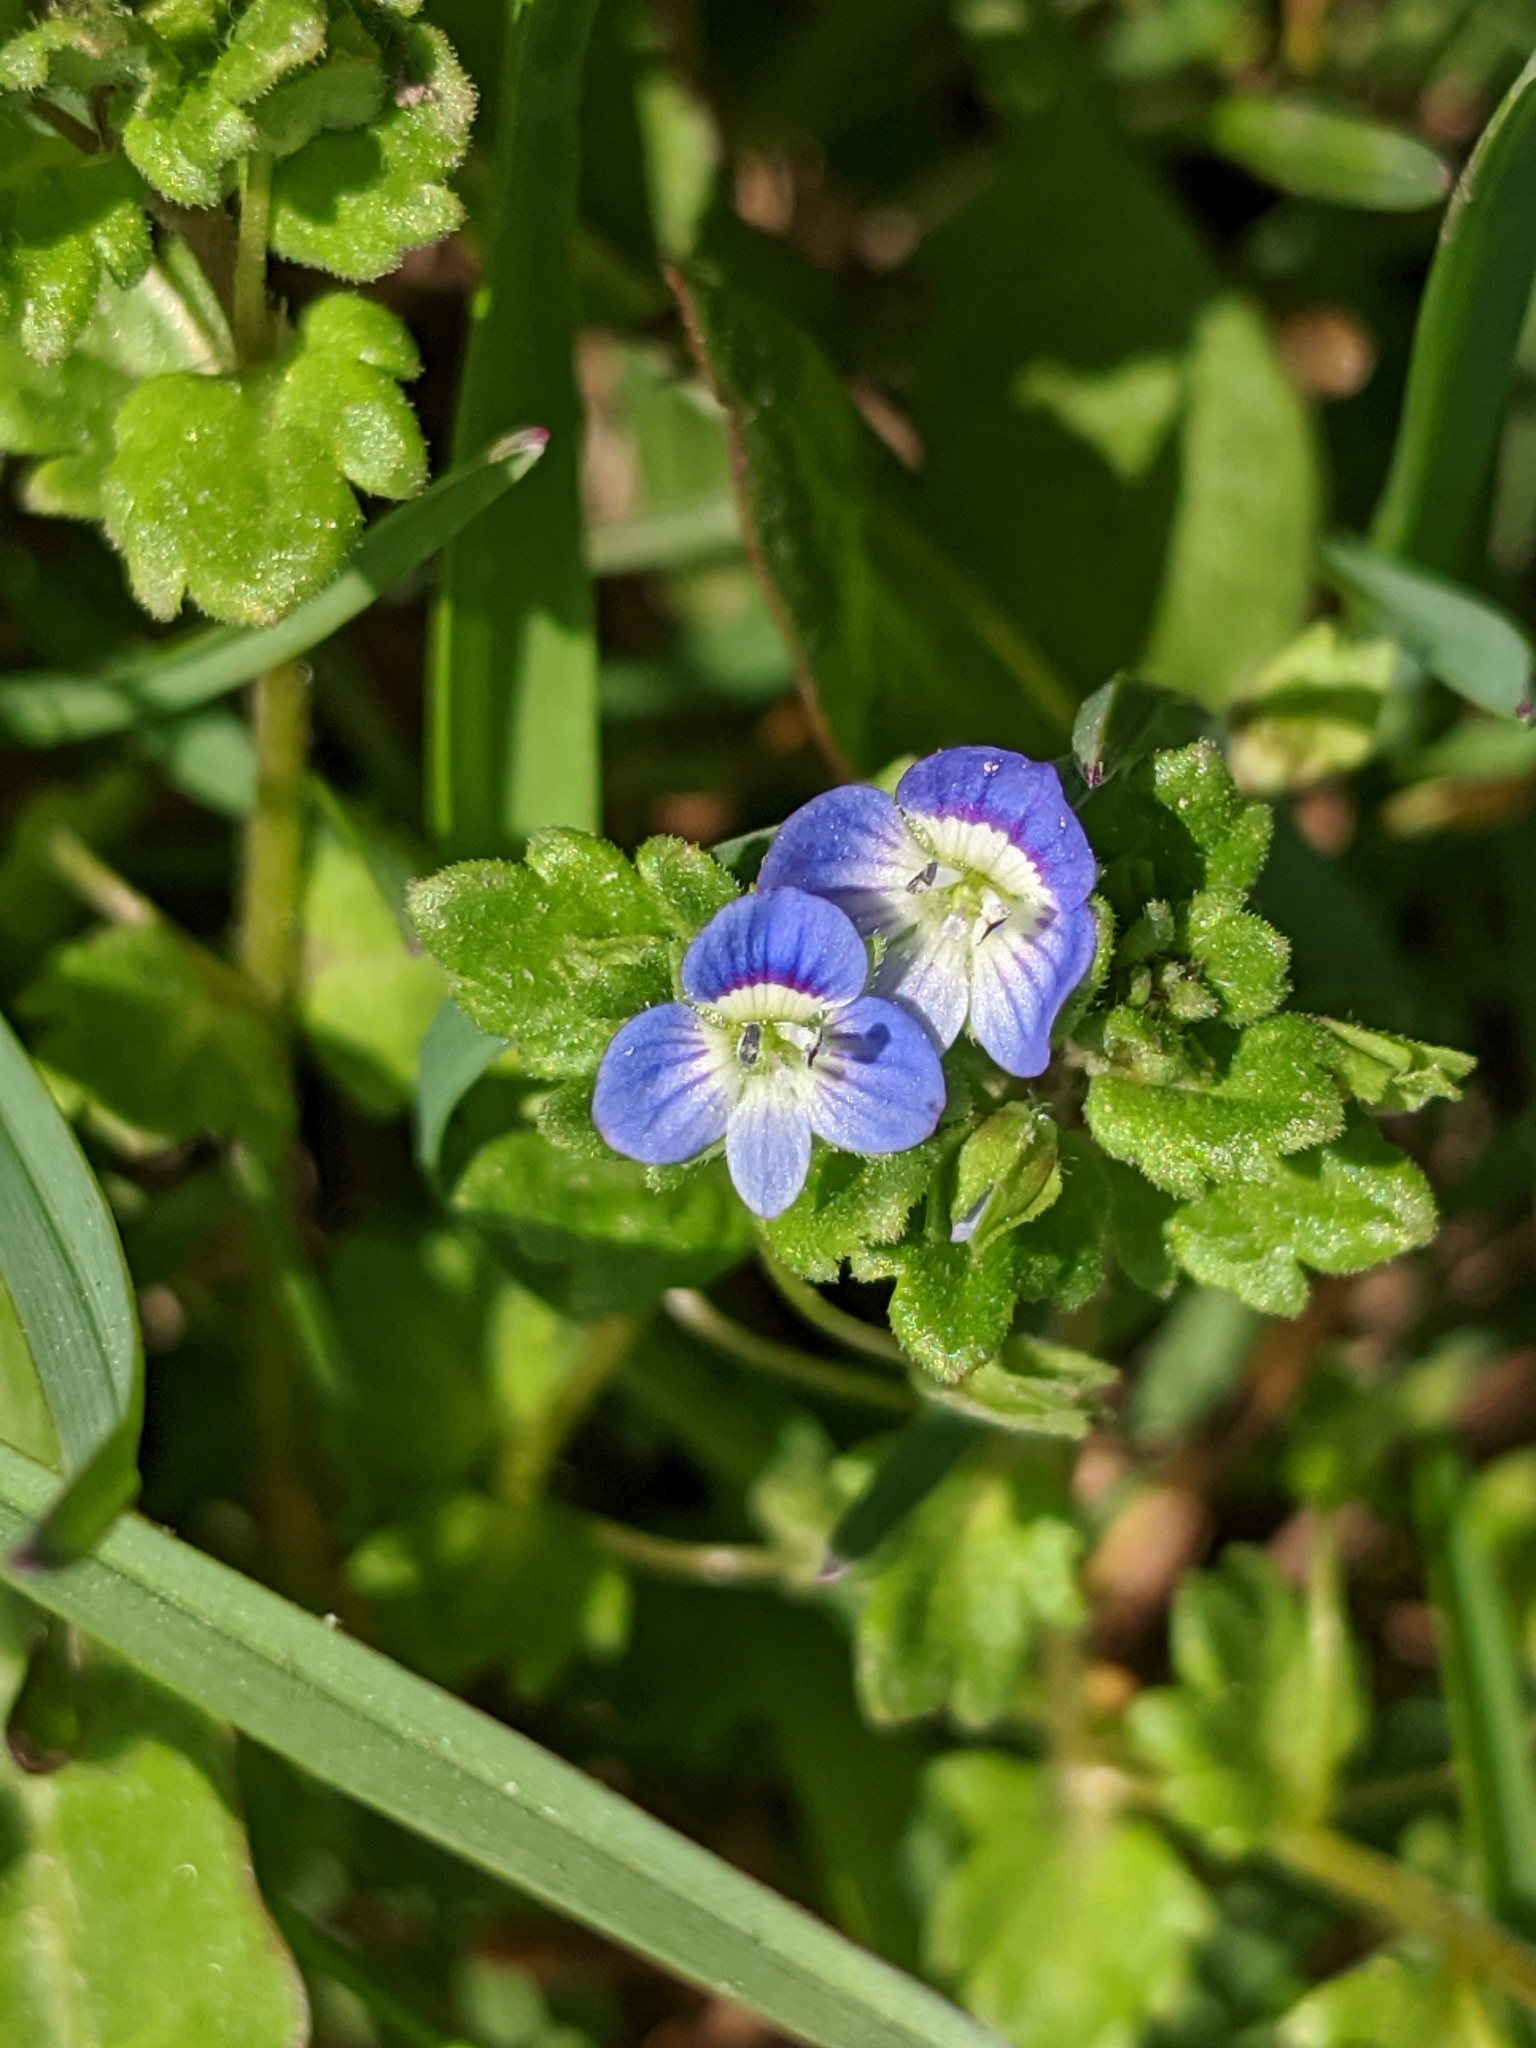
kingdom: Plantae
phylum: Tracheophyta
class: Magnoliopsida
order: Lamiales
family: Plantaginaceae
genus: Veronica
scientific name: Veronica polita
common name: Grey field-speedwell
